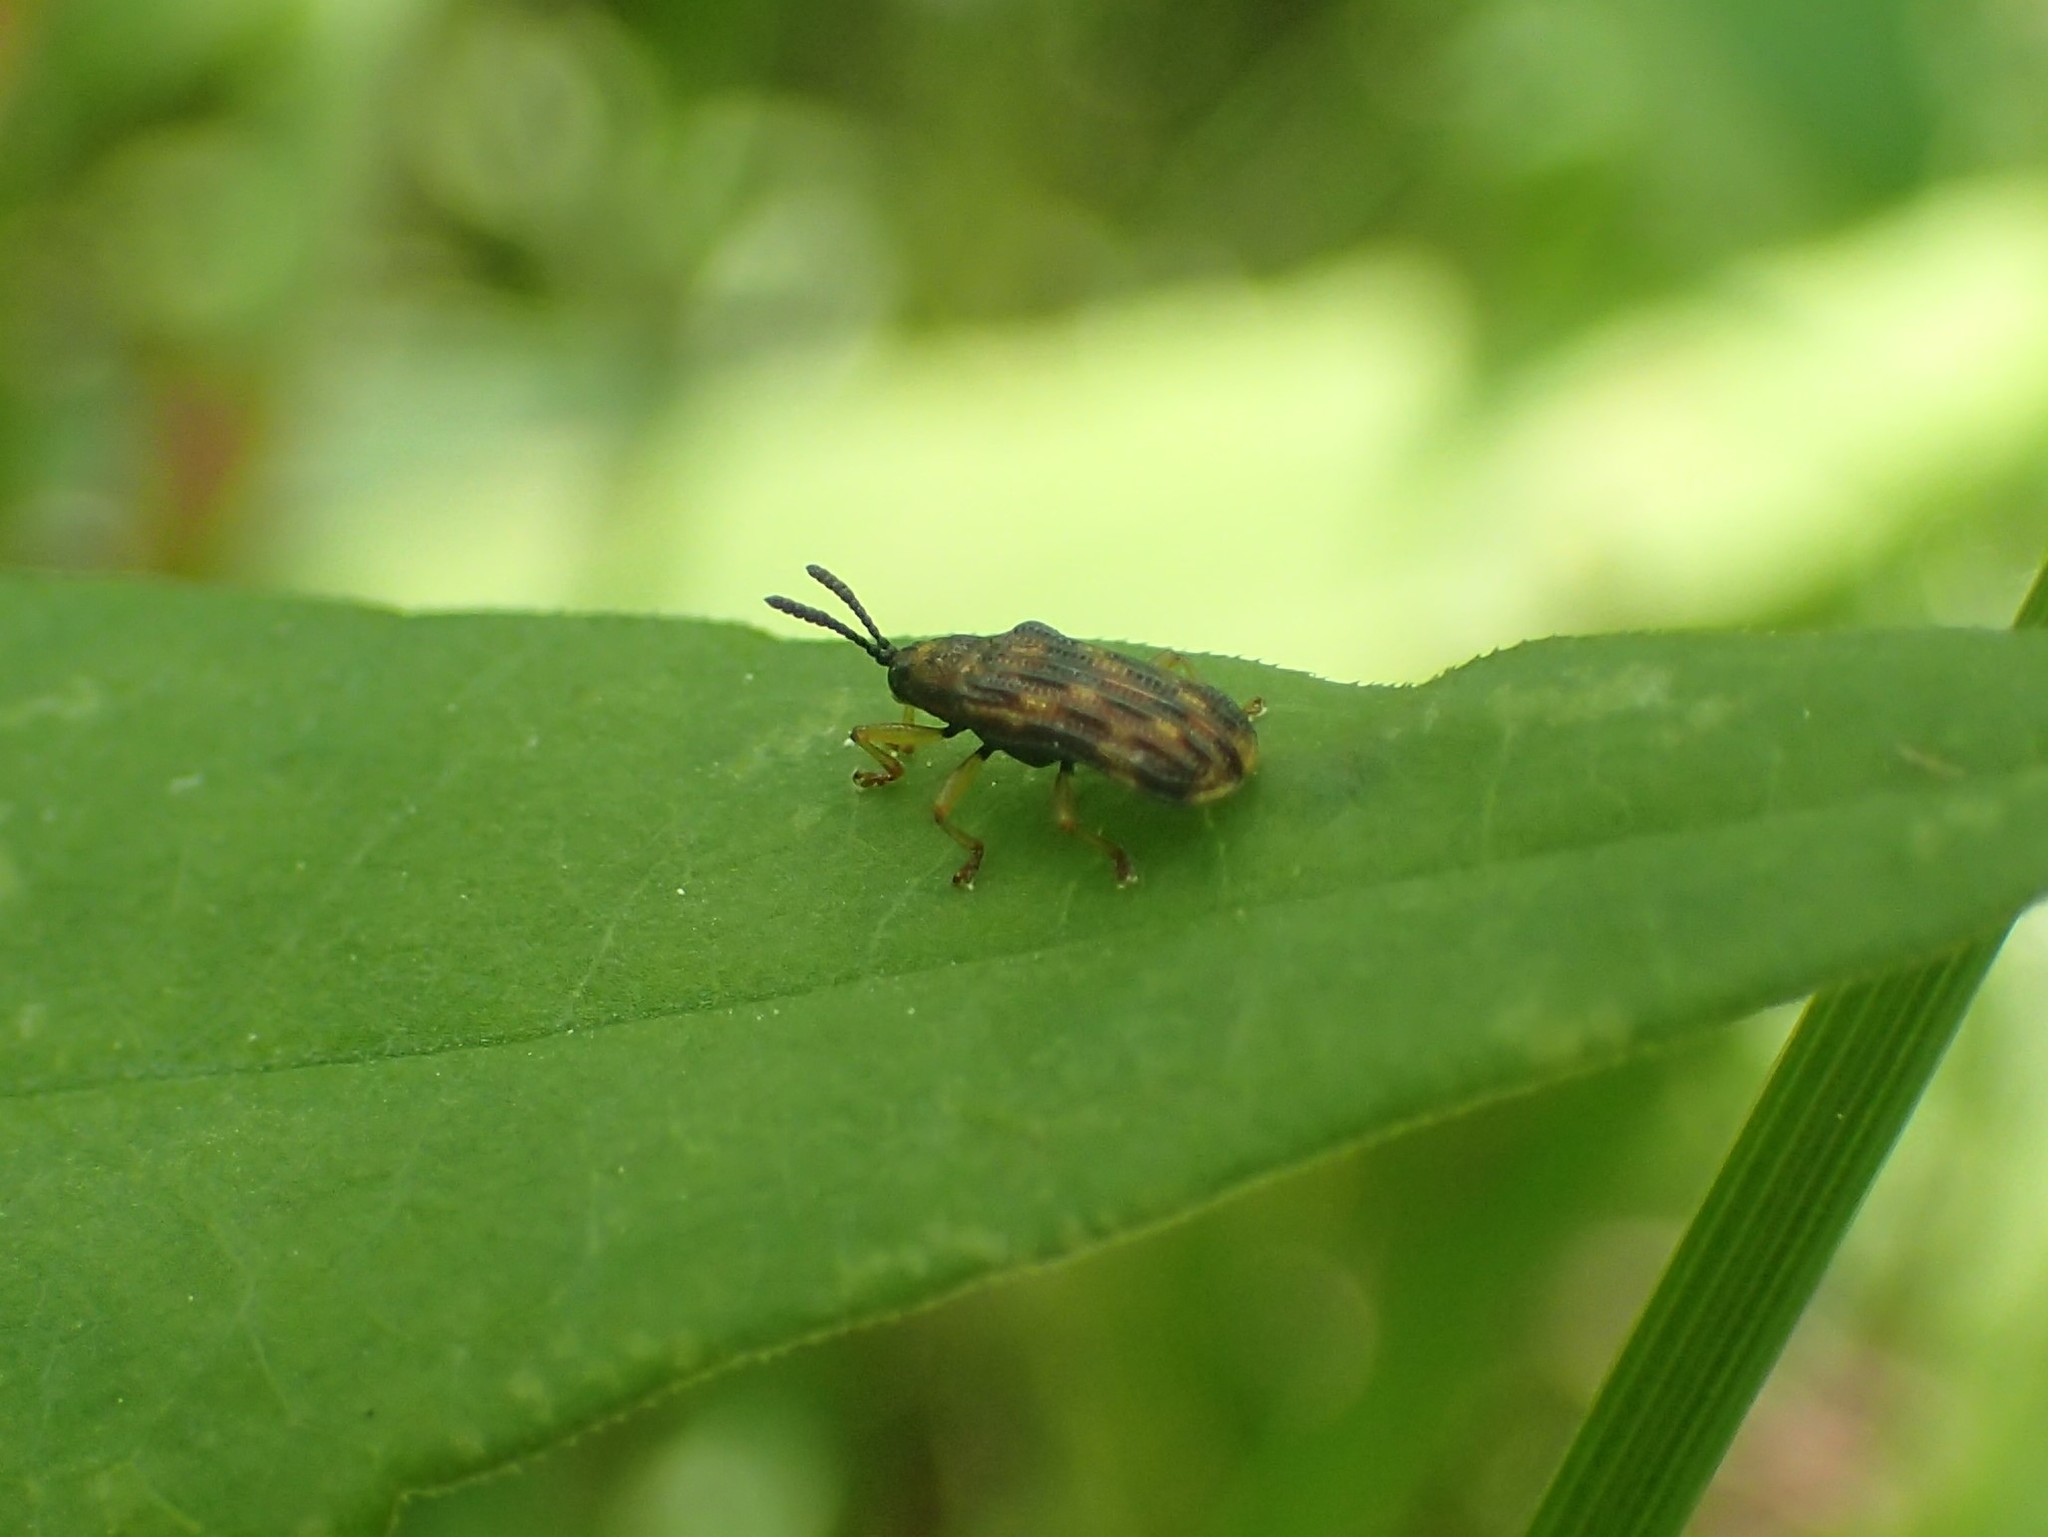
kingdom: Animalia
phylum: Arthropoda
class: Insecta
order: Coleoptera
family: Chrysomelidae
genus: Sumitrosis
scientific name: Sumitrosis inaequalis
